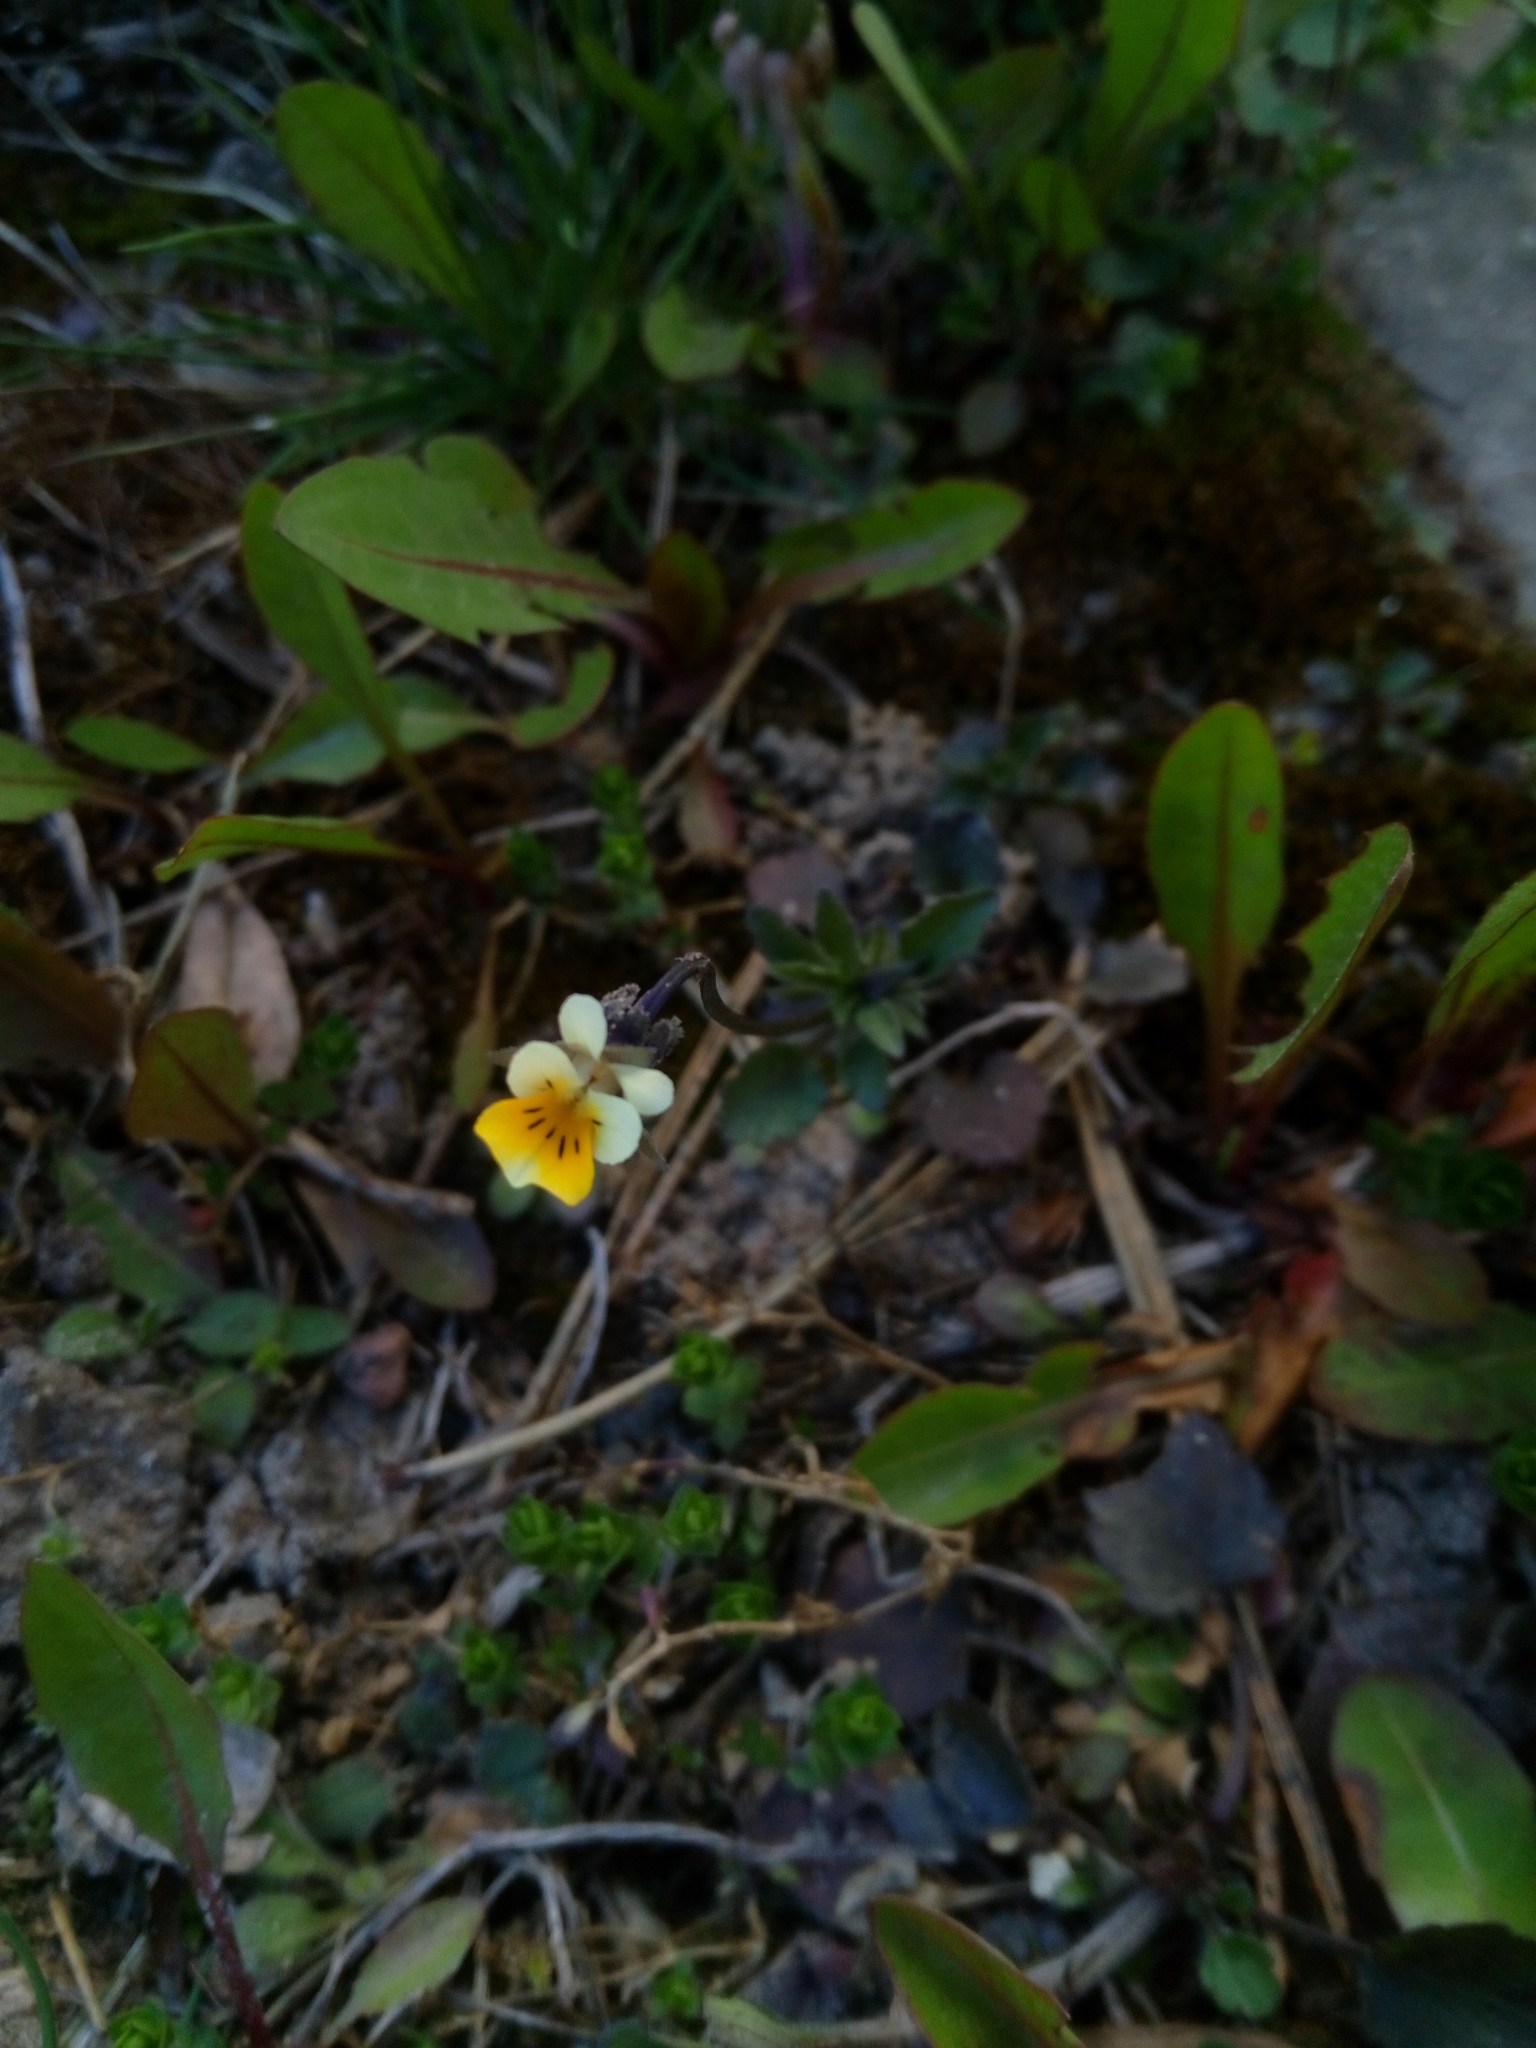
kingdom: Plantae
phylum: Tracheophyta
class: Magnoliopsida
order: Malpighiales
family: Violaceae
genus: Viola
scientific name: Viola arvensis
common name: Field pansy
